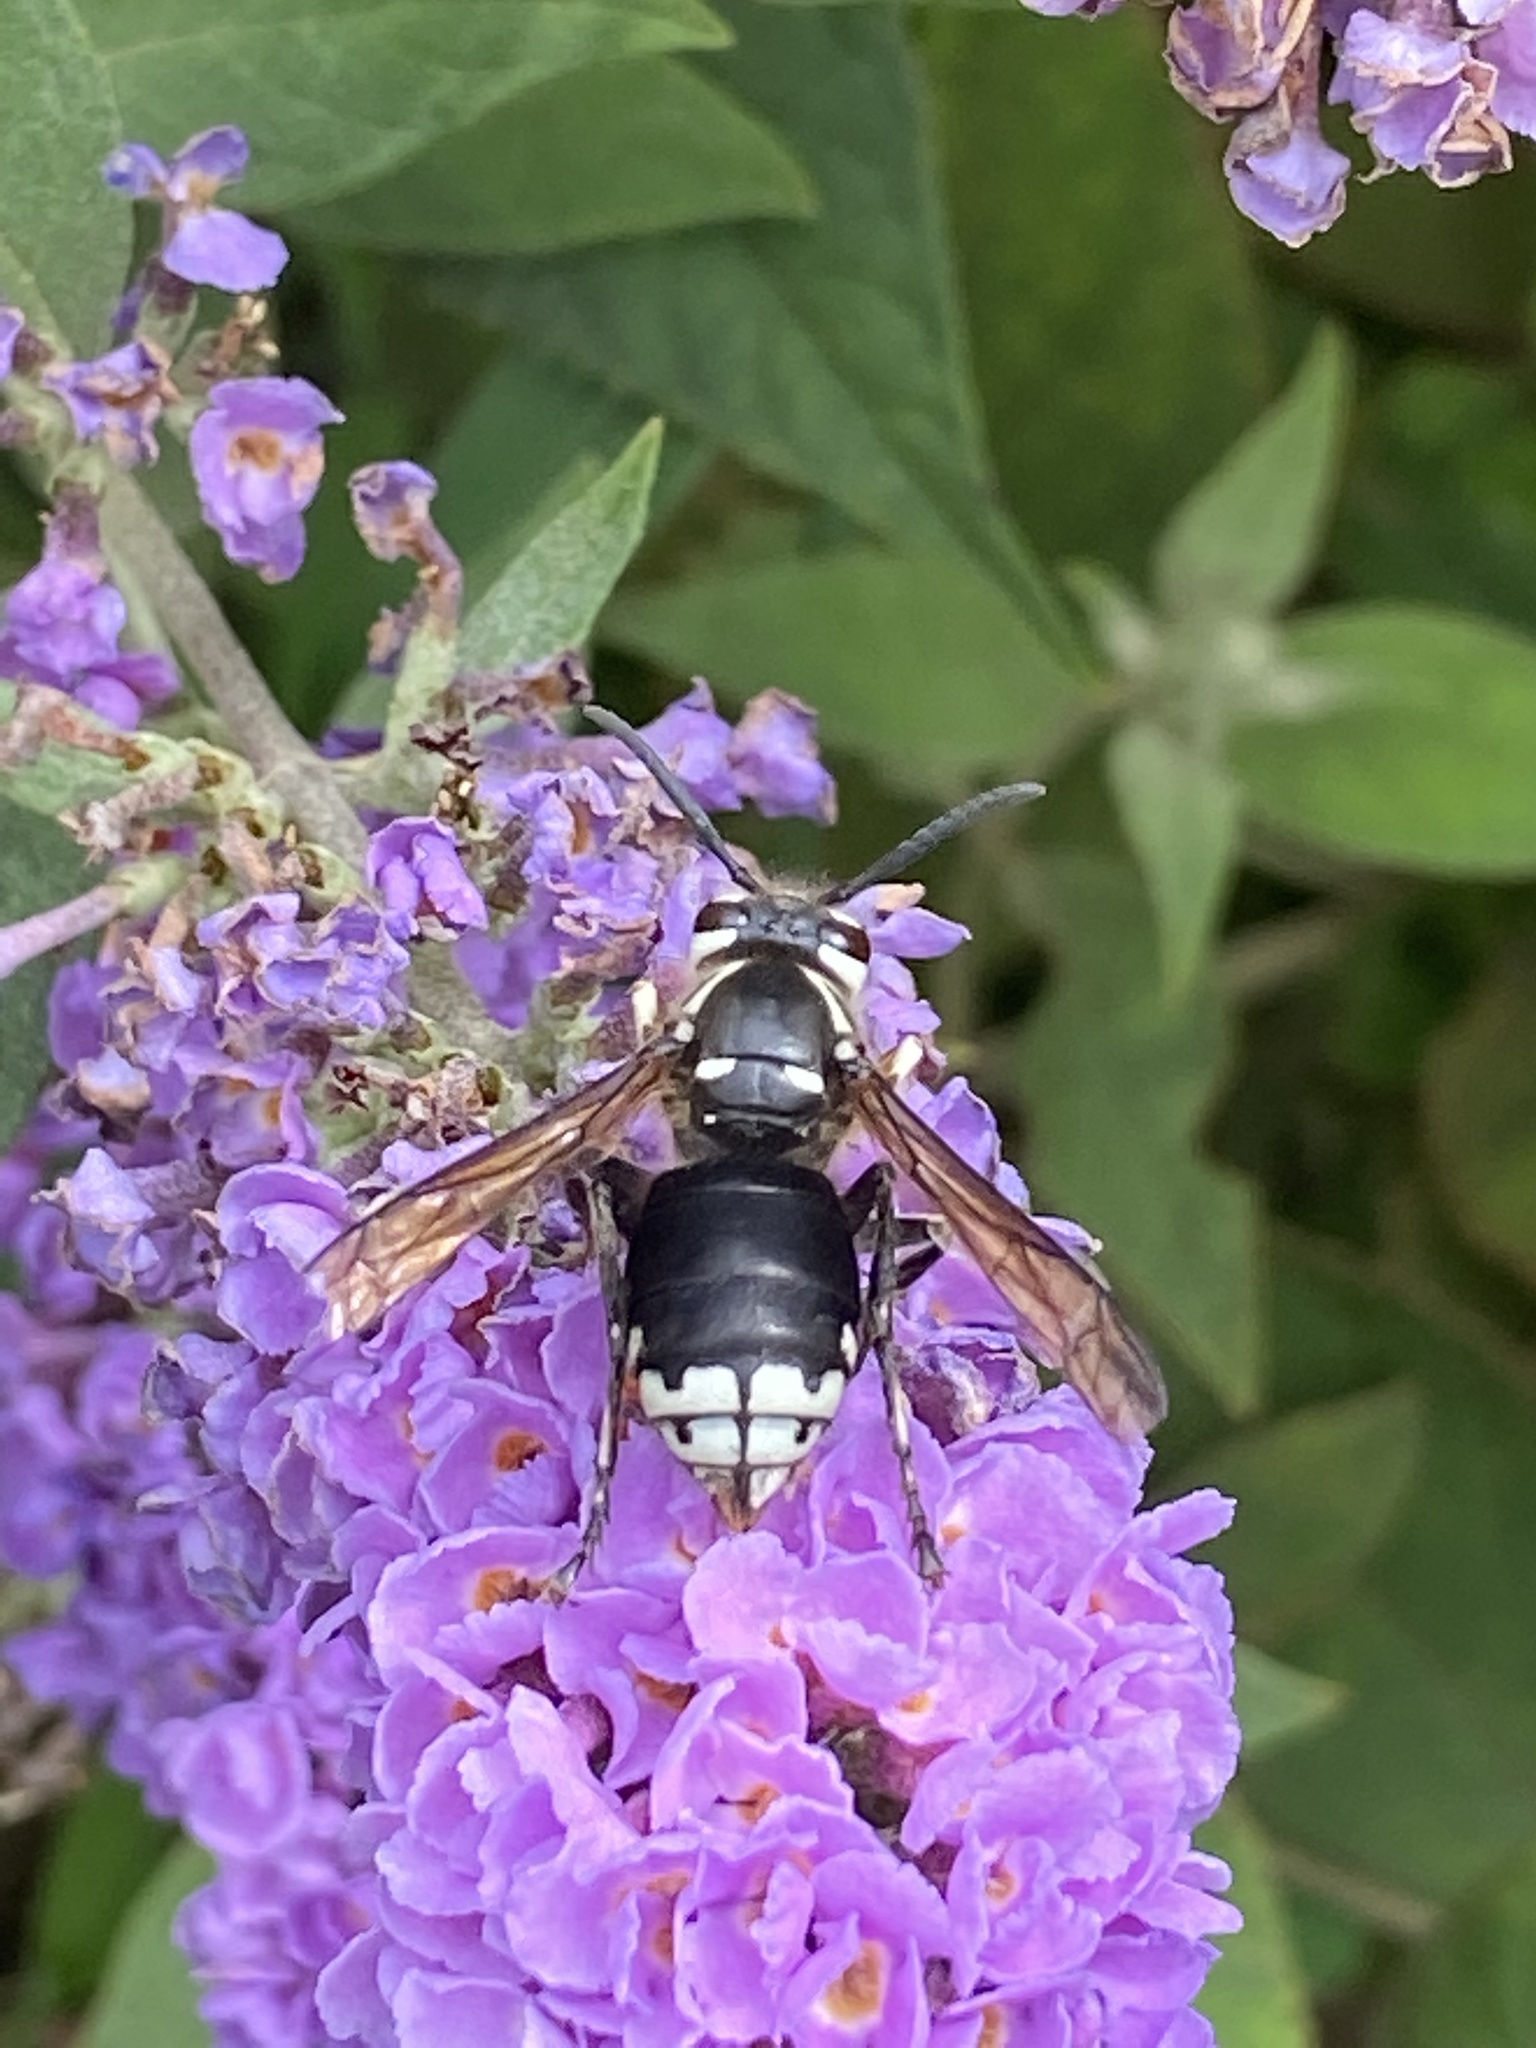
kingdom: Animalia
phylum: Arthropoda
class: Insecta
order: Hymenoptera
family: Vespidae
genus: Dolichovespula
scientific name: Dolichovespula maculata
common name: Bald-faced hornet
